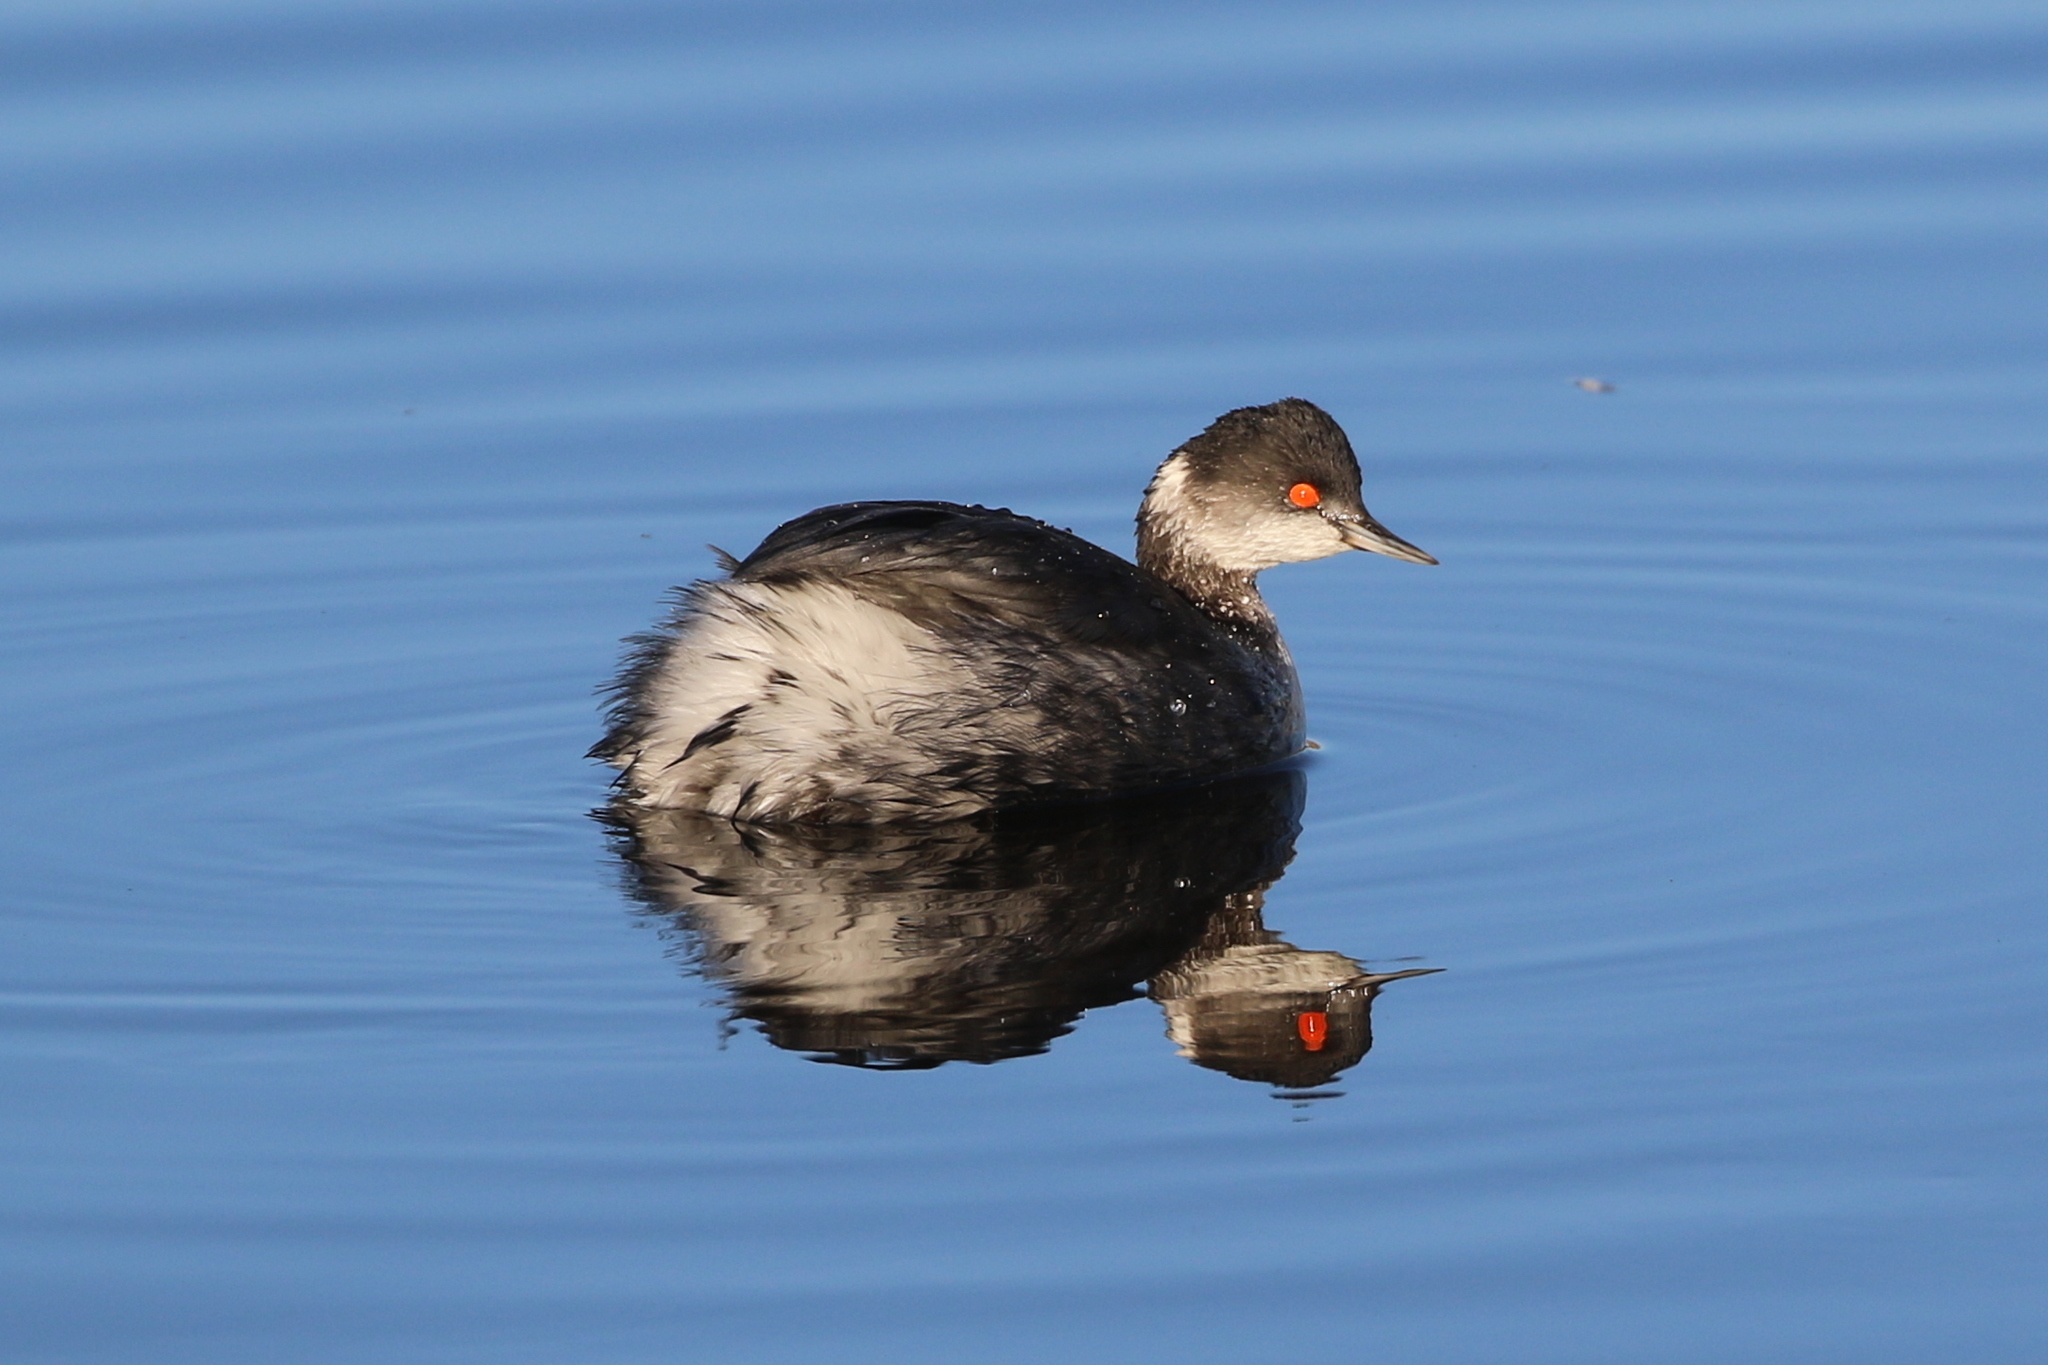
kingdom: Animalia
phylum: Chordata
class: Aves
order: Podicipediformes
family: Podicipedidae
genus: Podiceps
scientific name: Podiceps nigricollis
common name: Black-necked grebe
